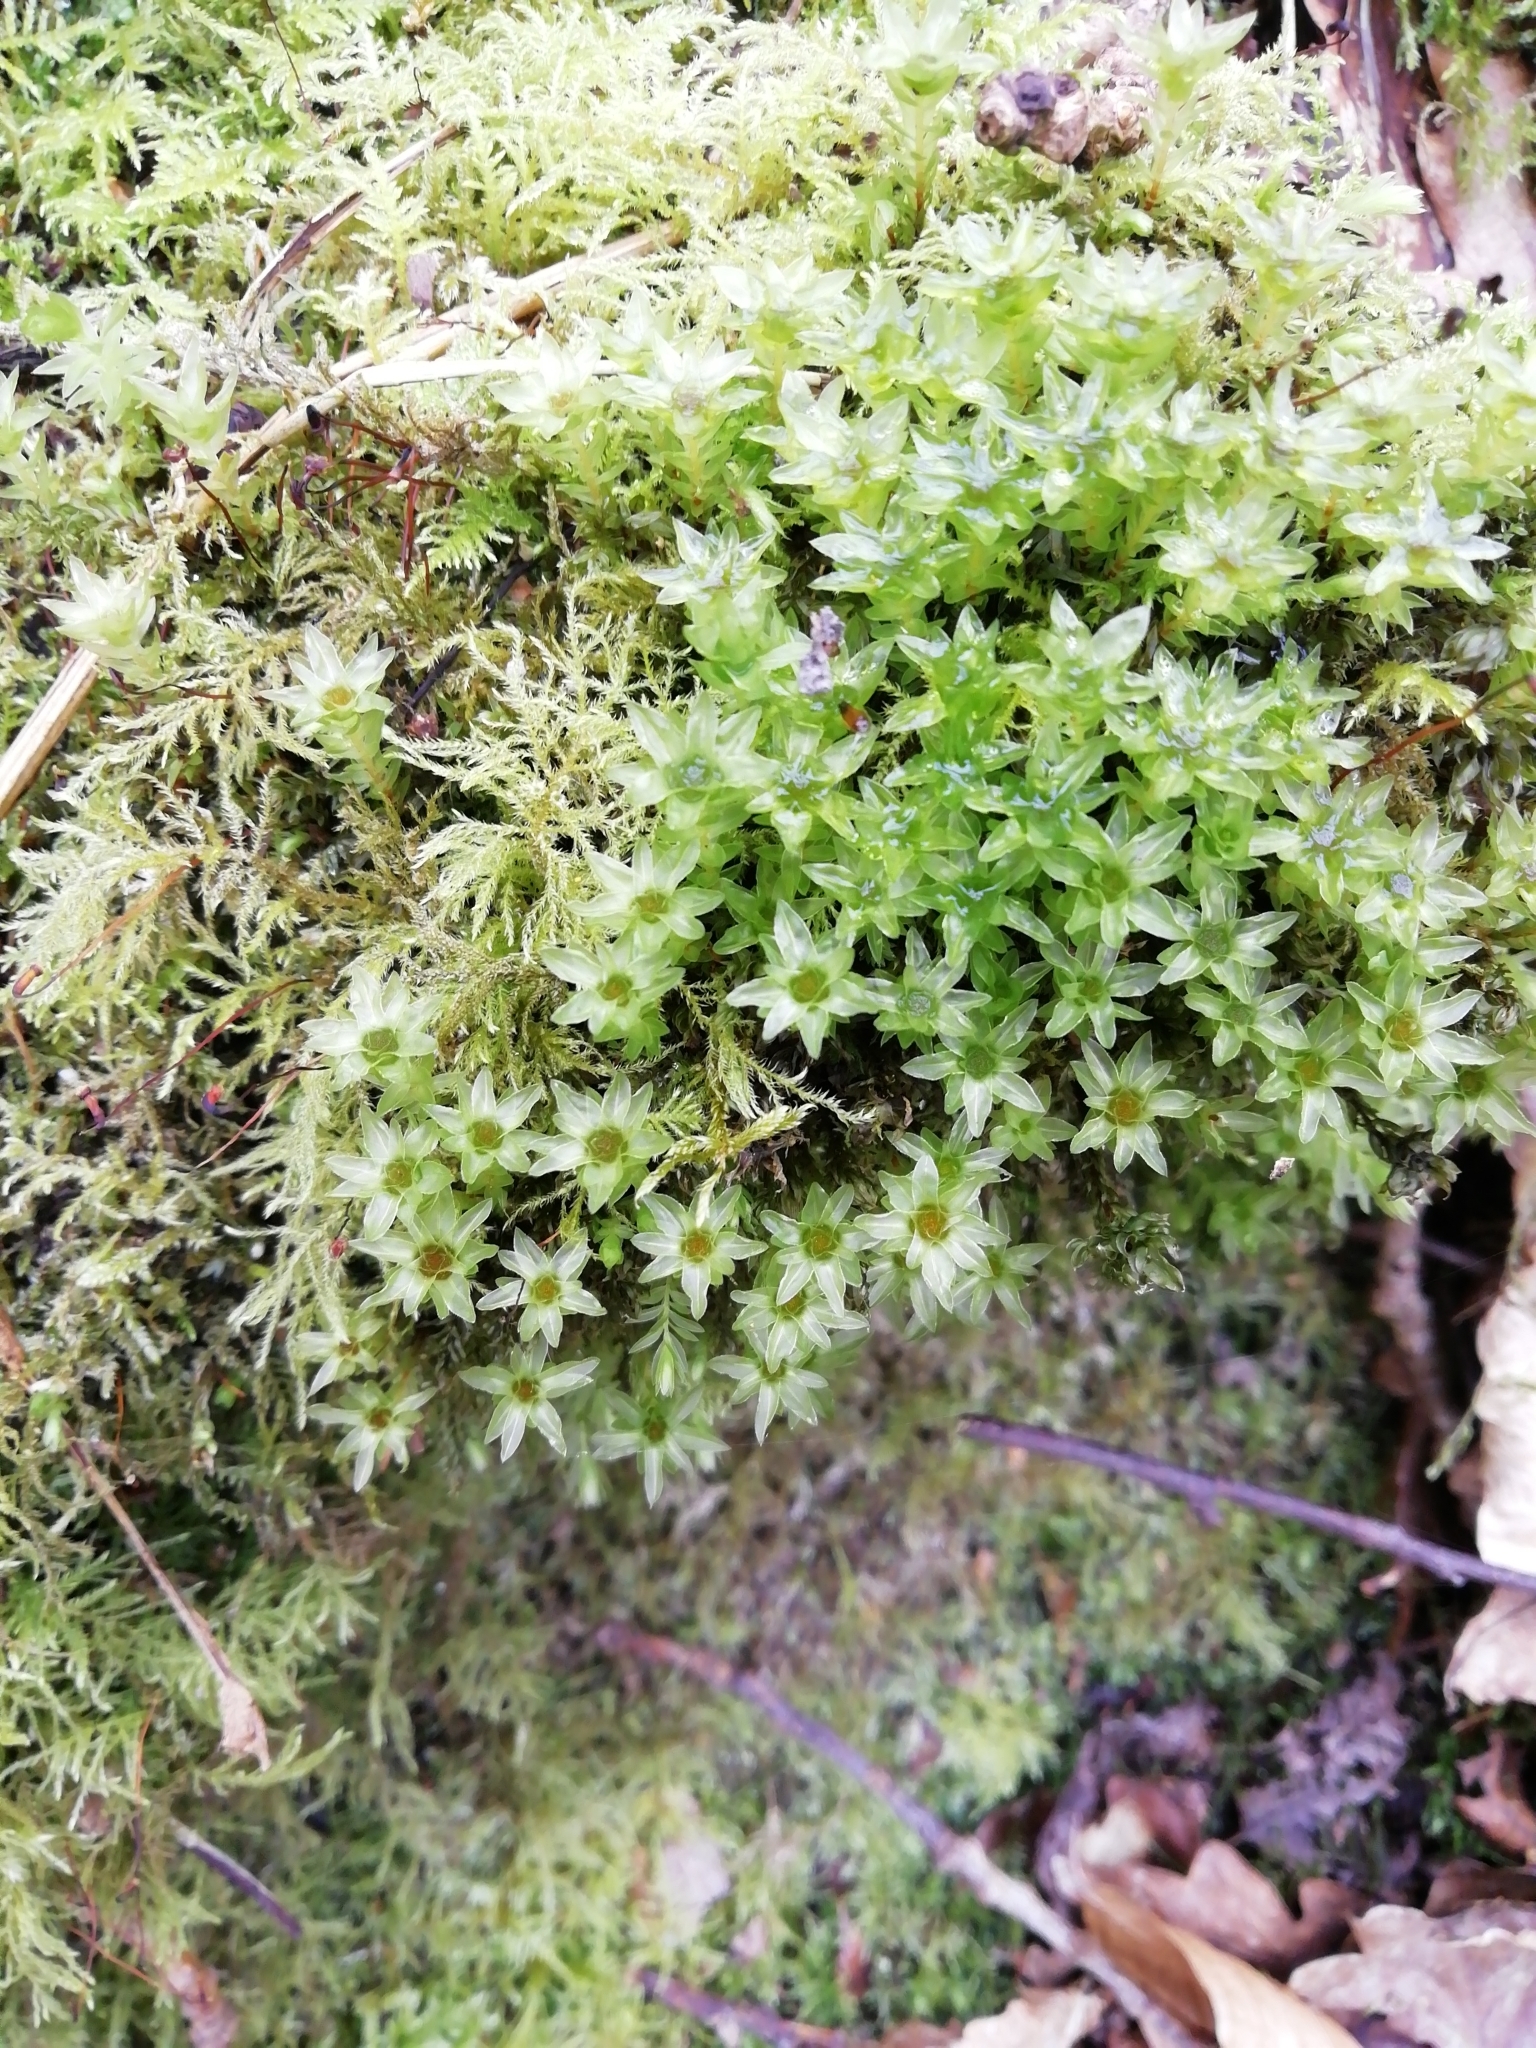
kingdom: Plantae
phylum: Bryophyta
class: Bryopsida
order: Bryales
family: Mniaceae
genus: Mnium
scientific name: Mnium hornum
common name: Swan's-neck leafy moss
